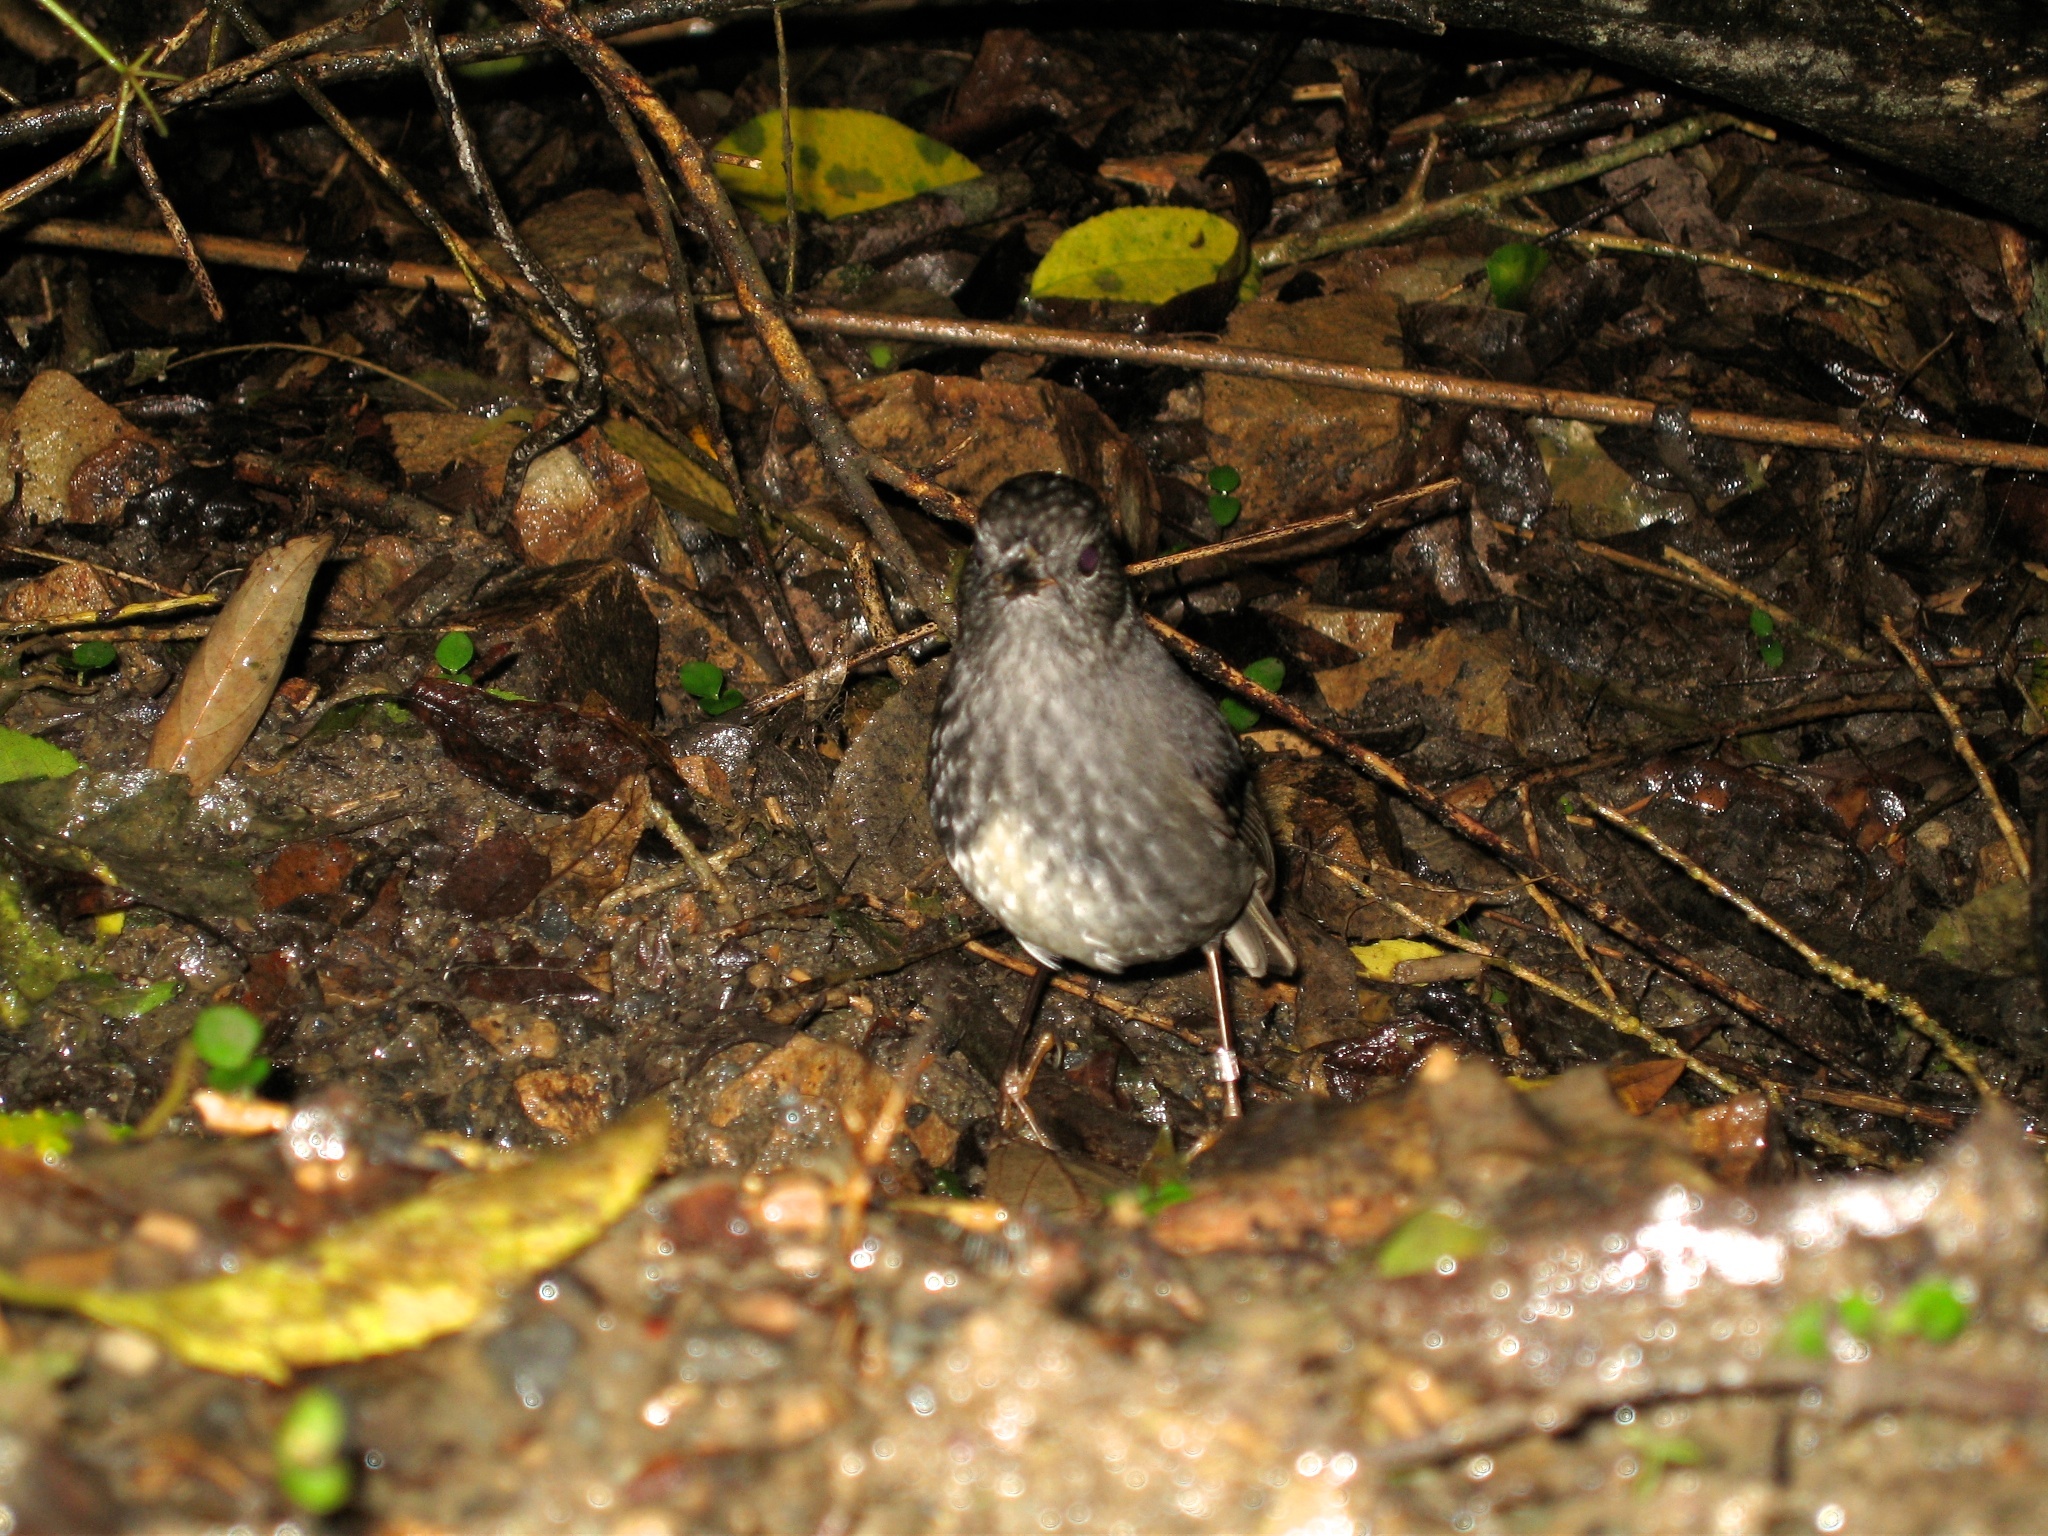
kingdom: Animalia
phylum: Chordata
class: Aves
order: Passeriformes
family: Petroicidae
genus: Petroica
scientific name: Petroica australis
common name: New zealand robin
